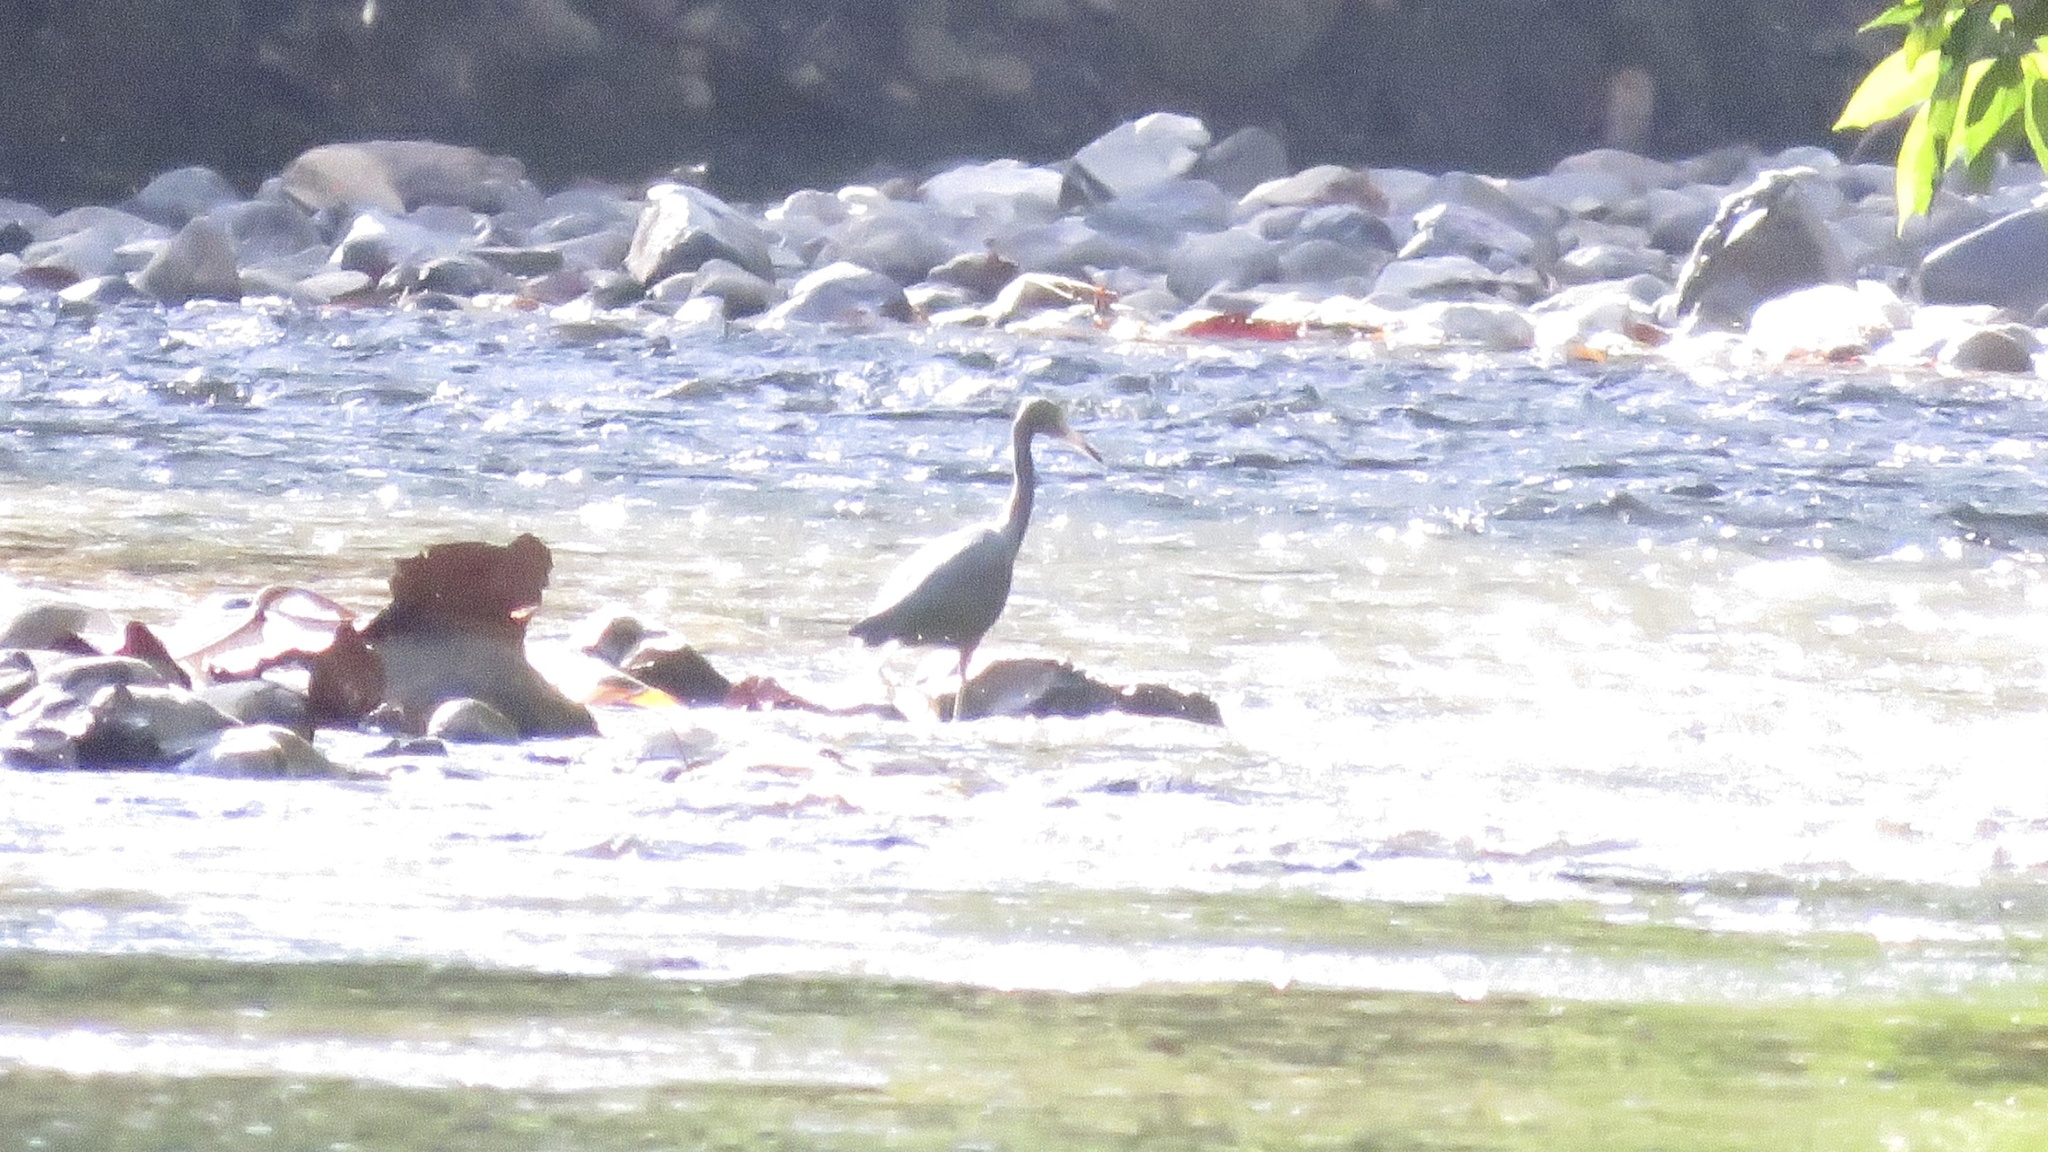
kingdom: Animalia
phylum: Chordata
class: Aves
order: Pelecaniformes
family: Ardeidae
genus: Egretta
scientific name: Egretta caerulea
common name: Little blue heron
